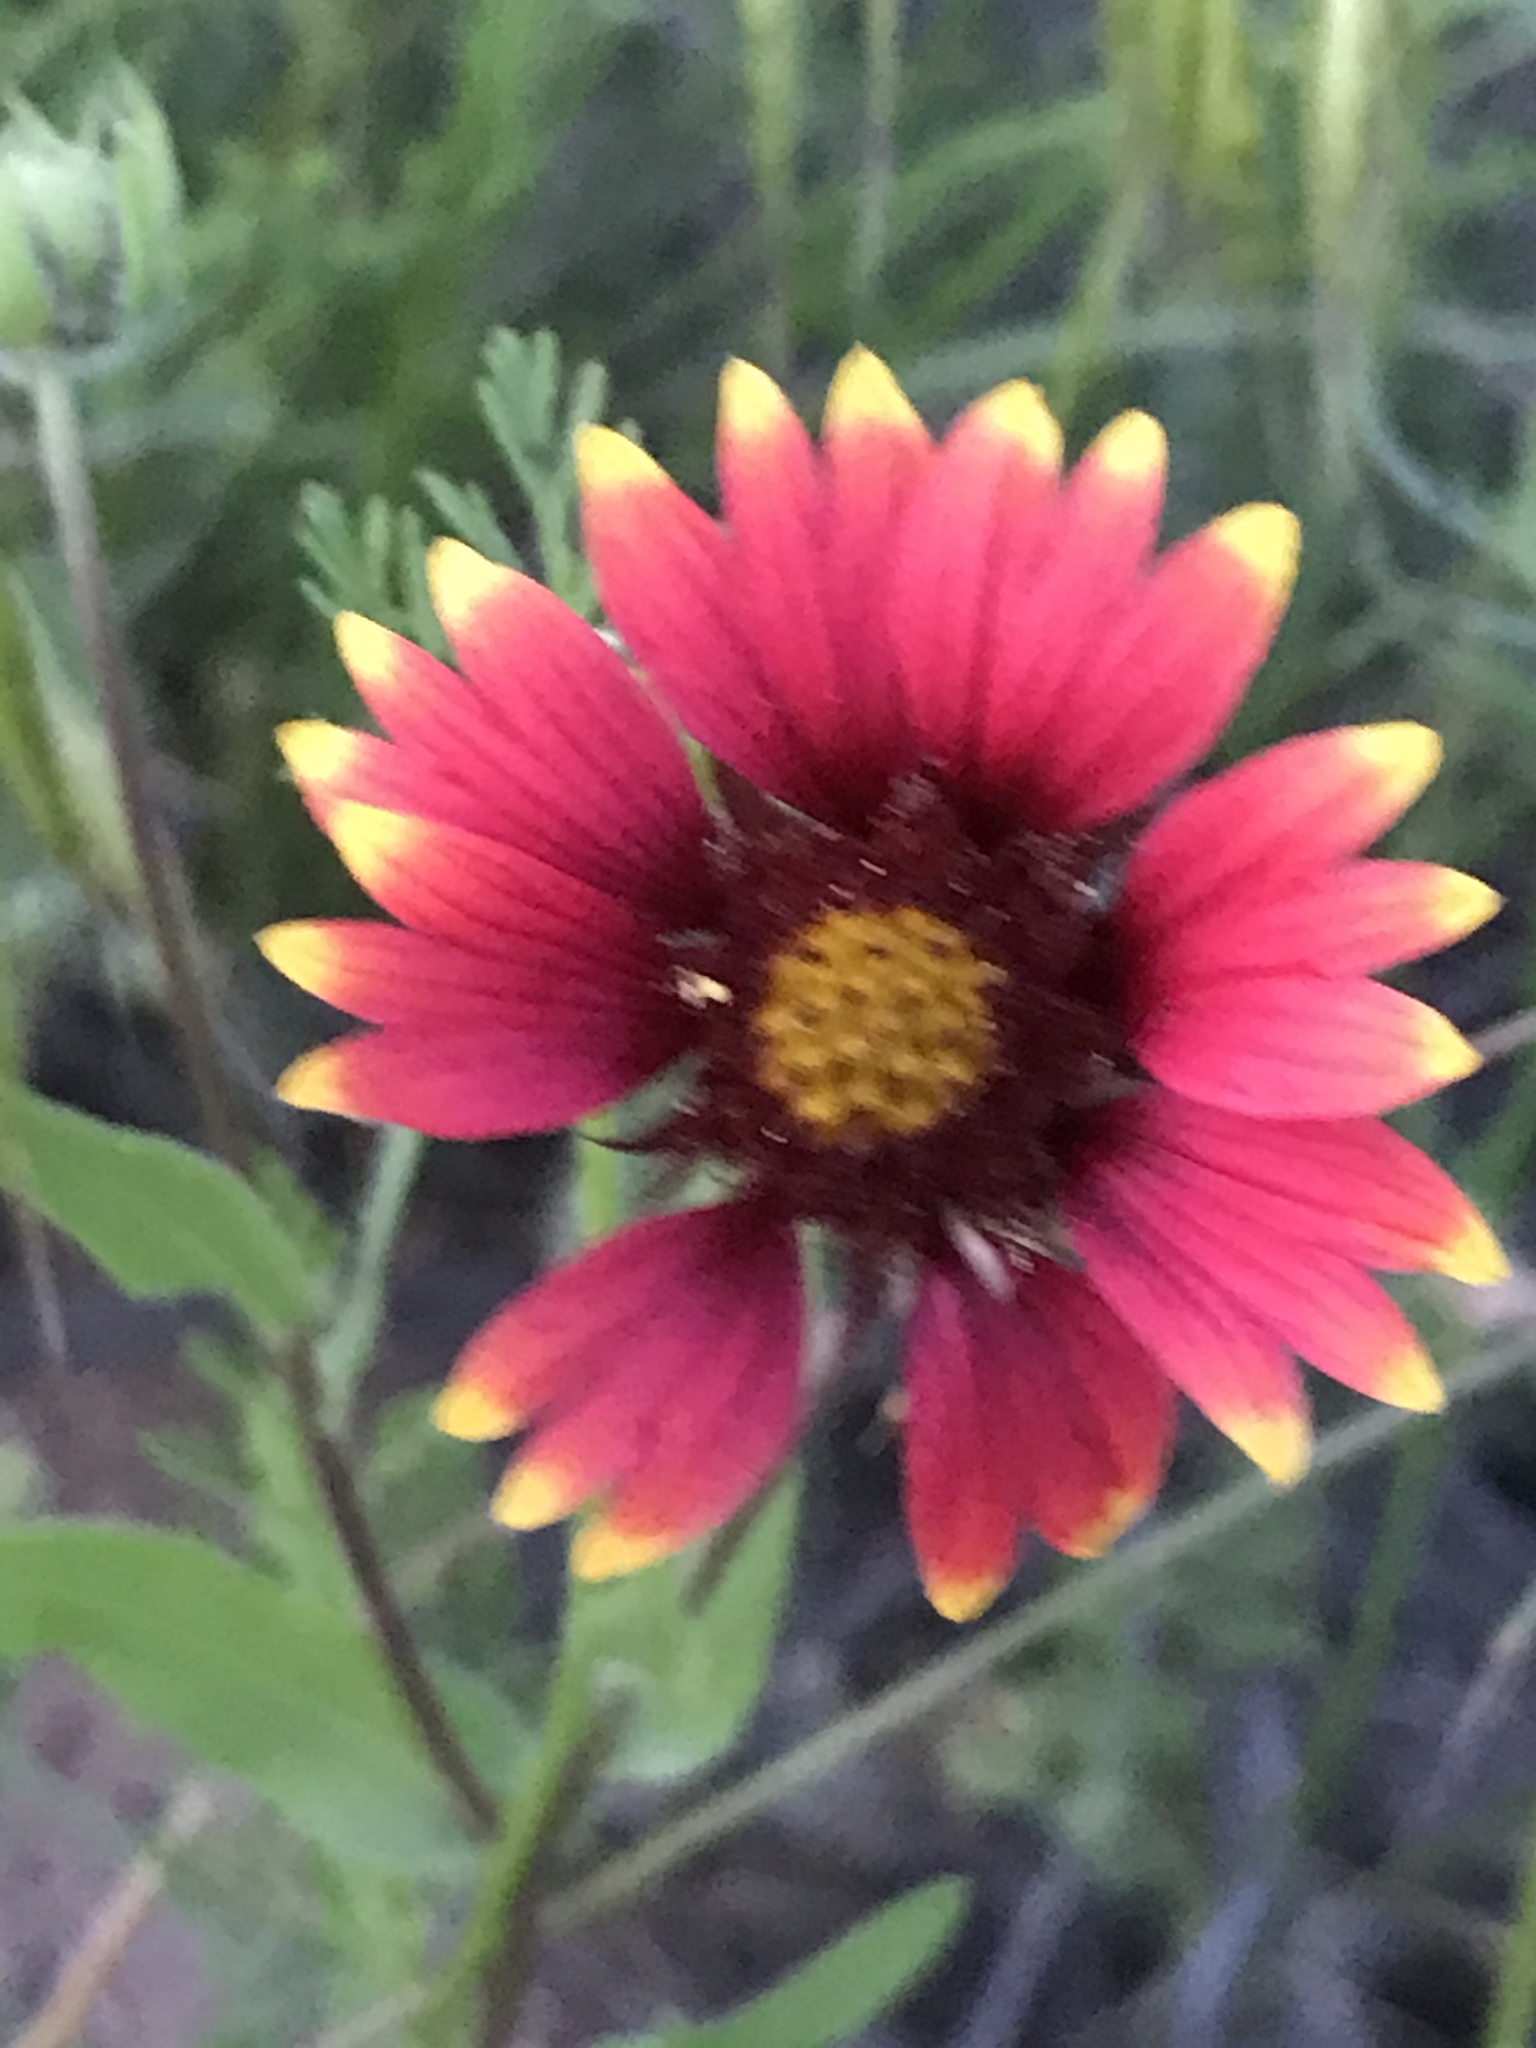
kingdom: Plantae
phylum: Tracheophyta
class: Magnoliopsida
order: Asterales
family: Asteraceae
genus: Gaillardia
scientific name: Gaillardia pulchella
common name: Firewheel
